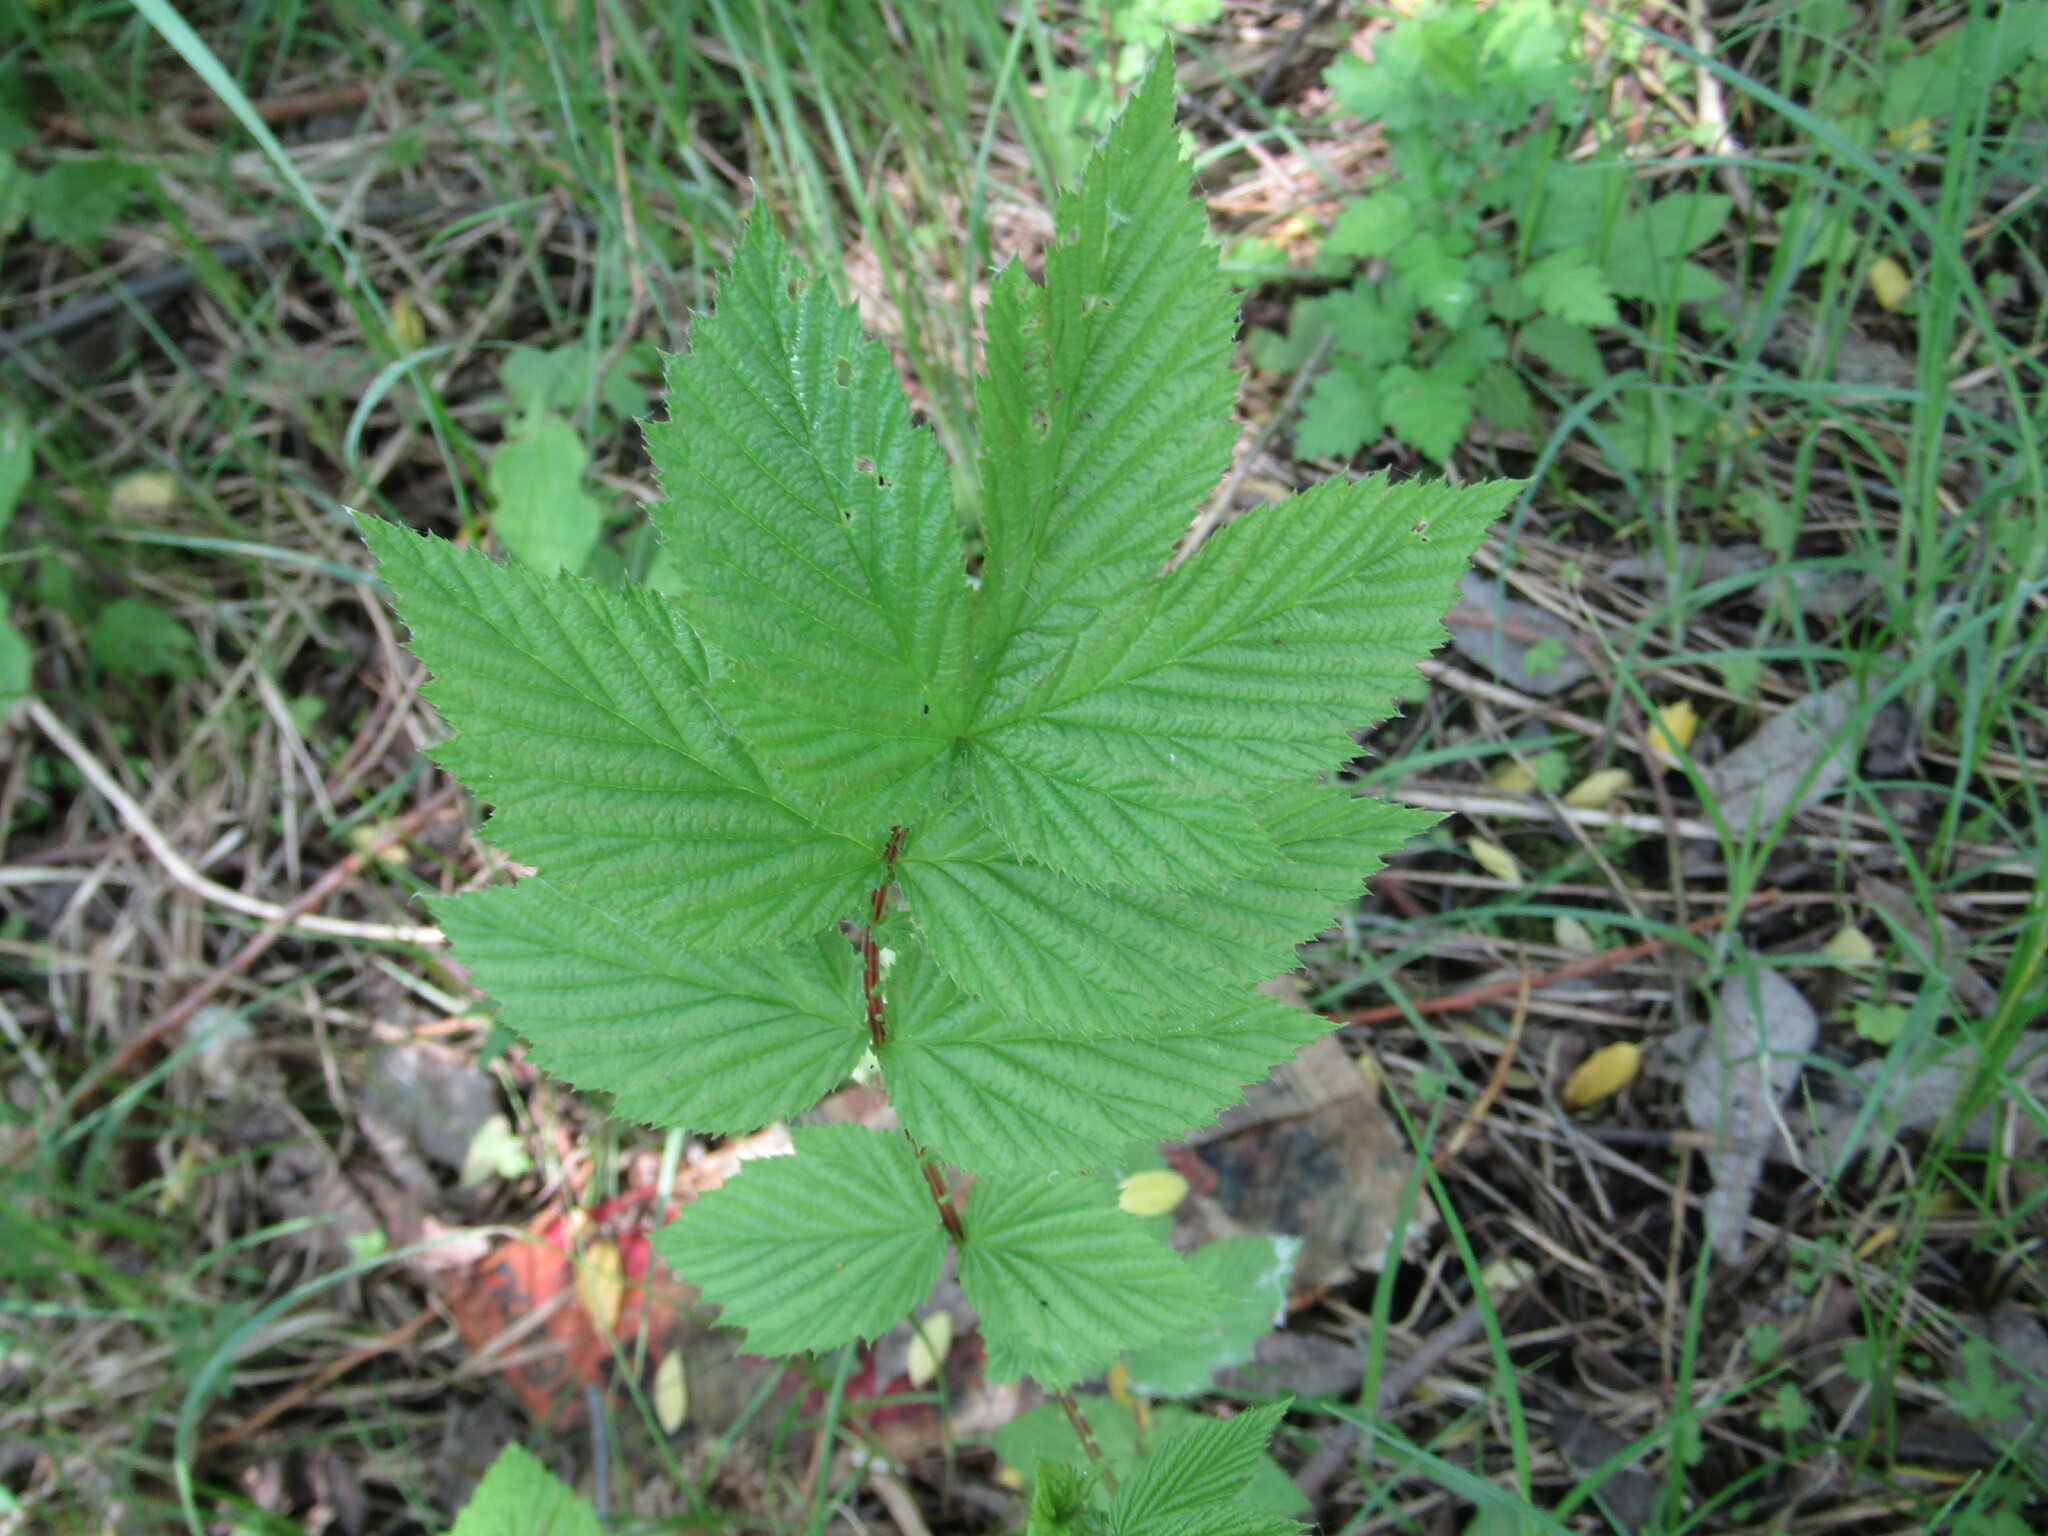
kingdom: Plantae
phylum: Tracheophyta
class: Magnoliopsida
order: Rosales
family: Rosaceae
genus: Filipendula
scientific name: Filipendula ulmaria
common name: Meadowsweet
